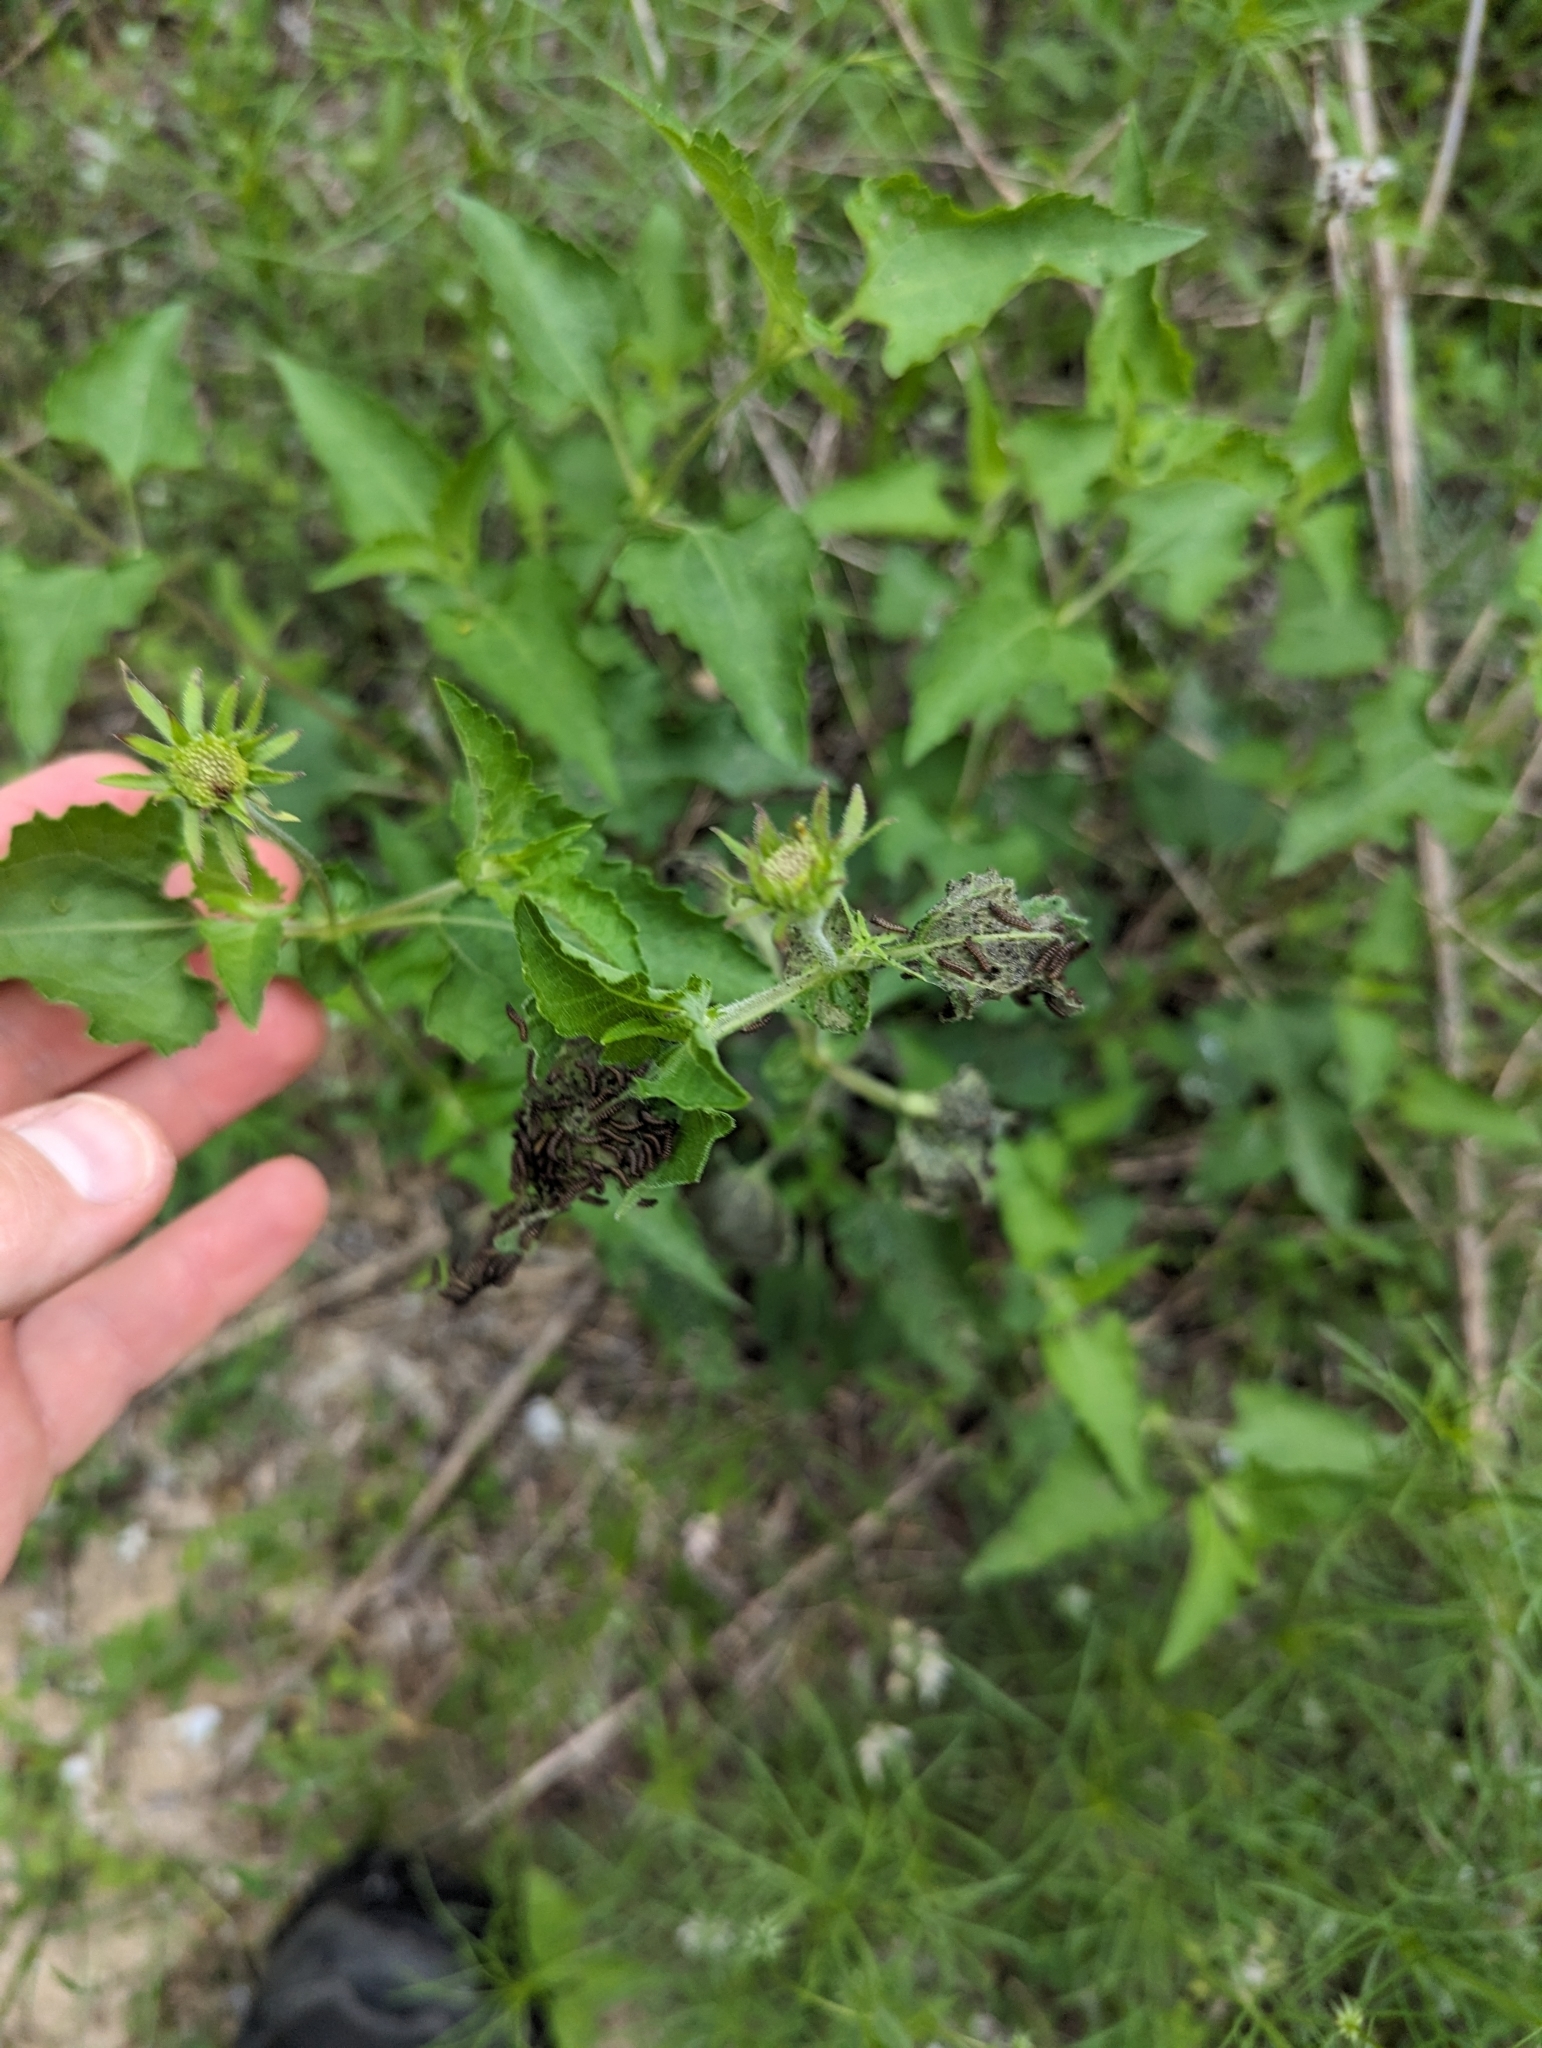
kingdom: Plantae
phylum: Tracheophyta
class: Magnoliopsida
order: Asterales
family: Asteraceae
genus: Simsia
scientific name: Simsia calva
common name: Awnless bush-sunflower
